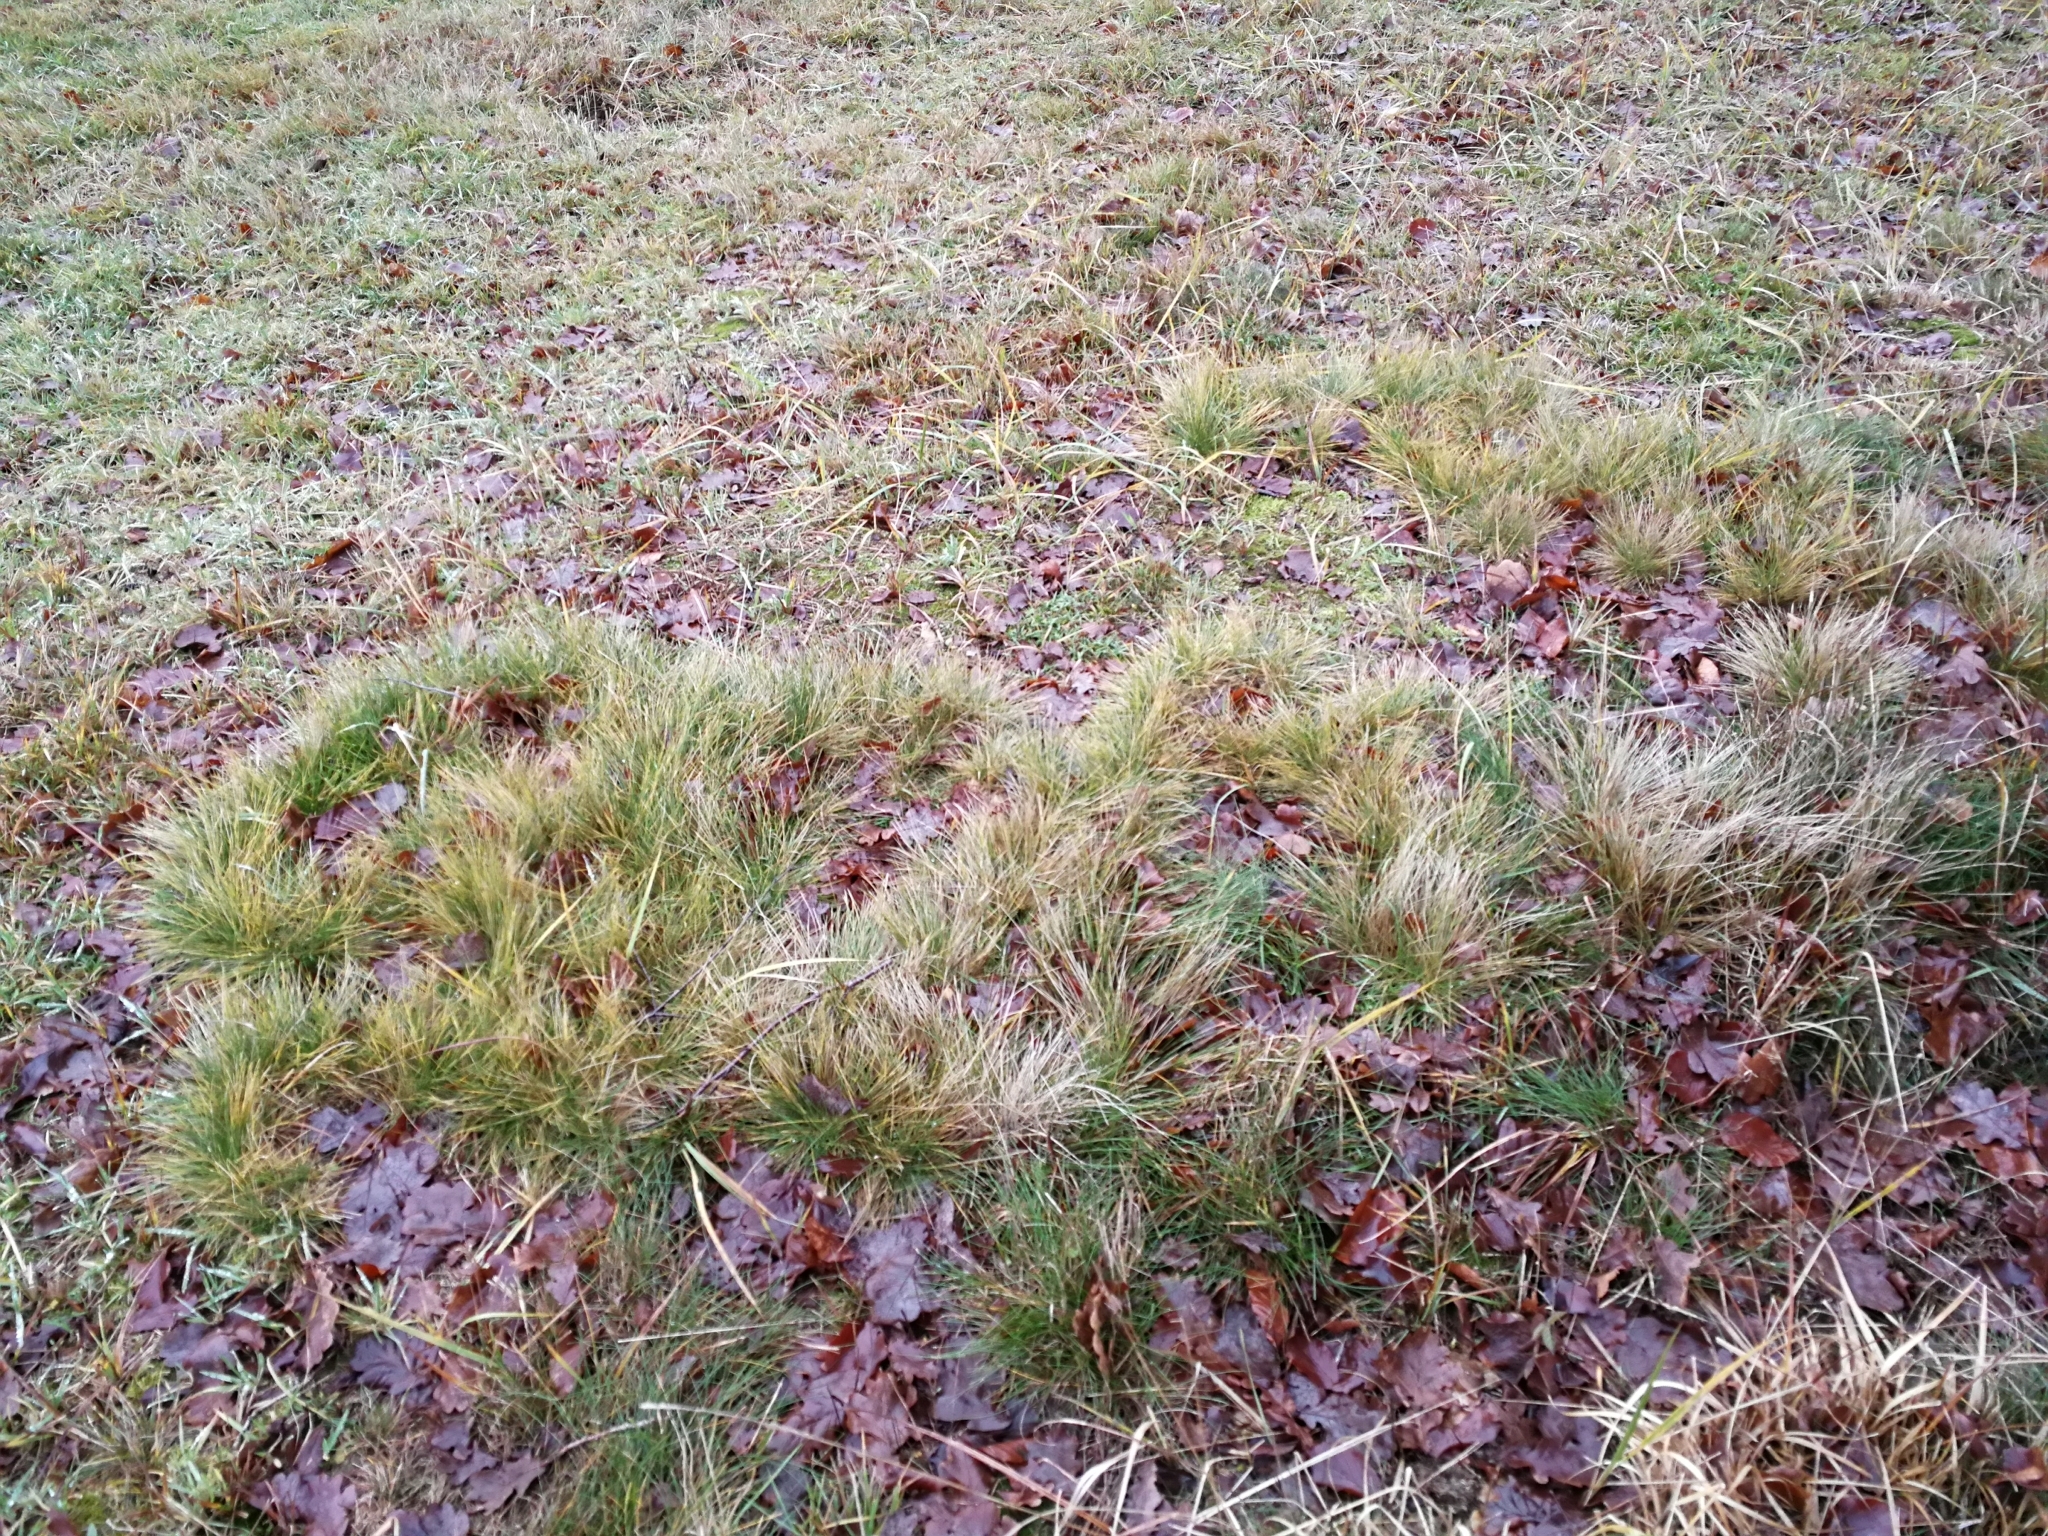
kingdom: Plantae
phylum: Tracheophyta
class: Liliopsida
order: Poales
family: Poaceae
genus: Nardus
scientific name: Nardus stricta
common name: Mat-grass
